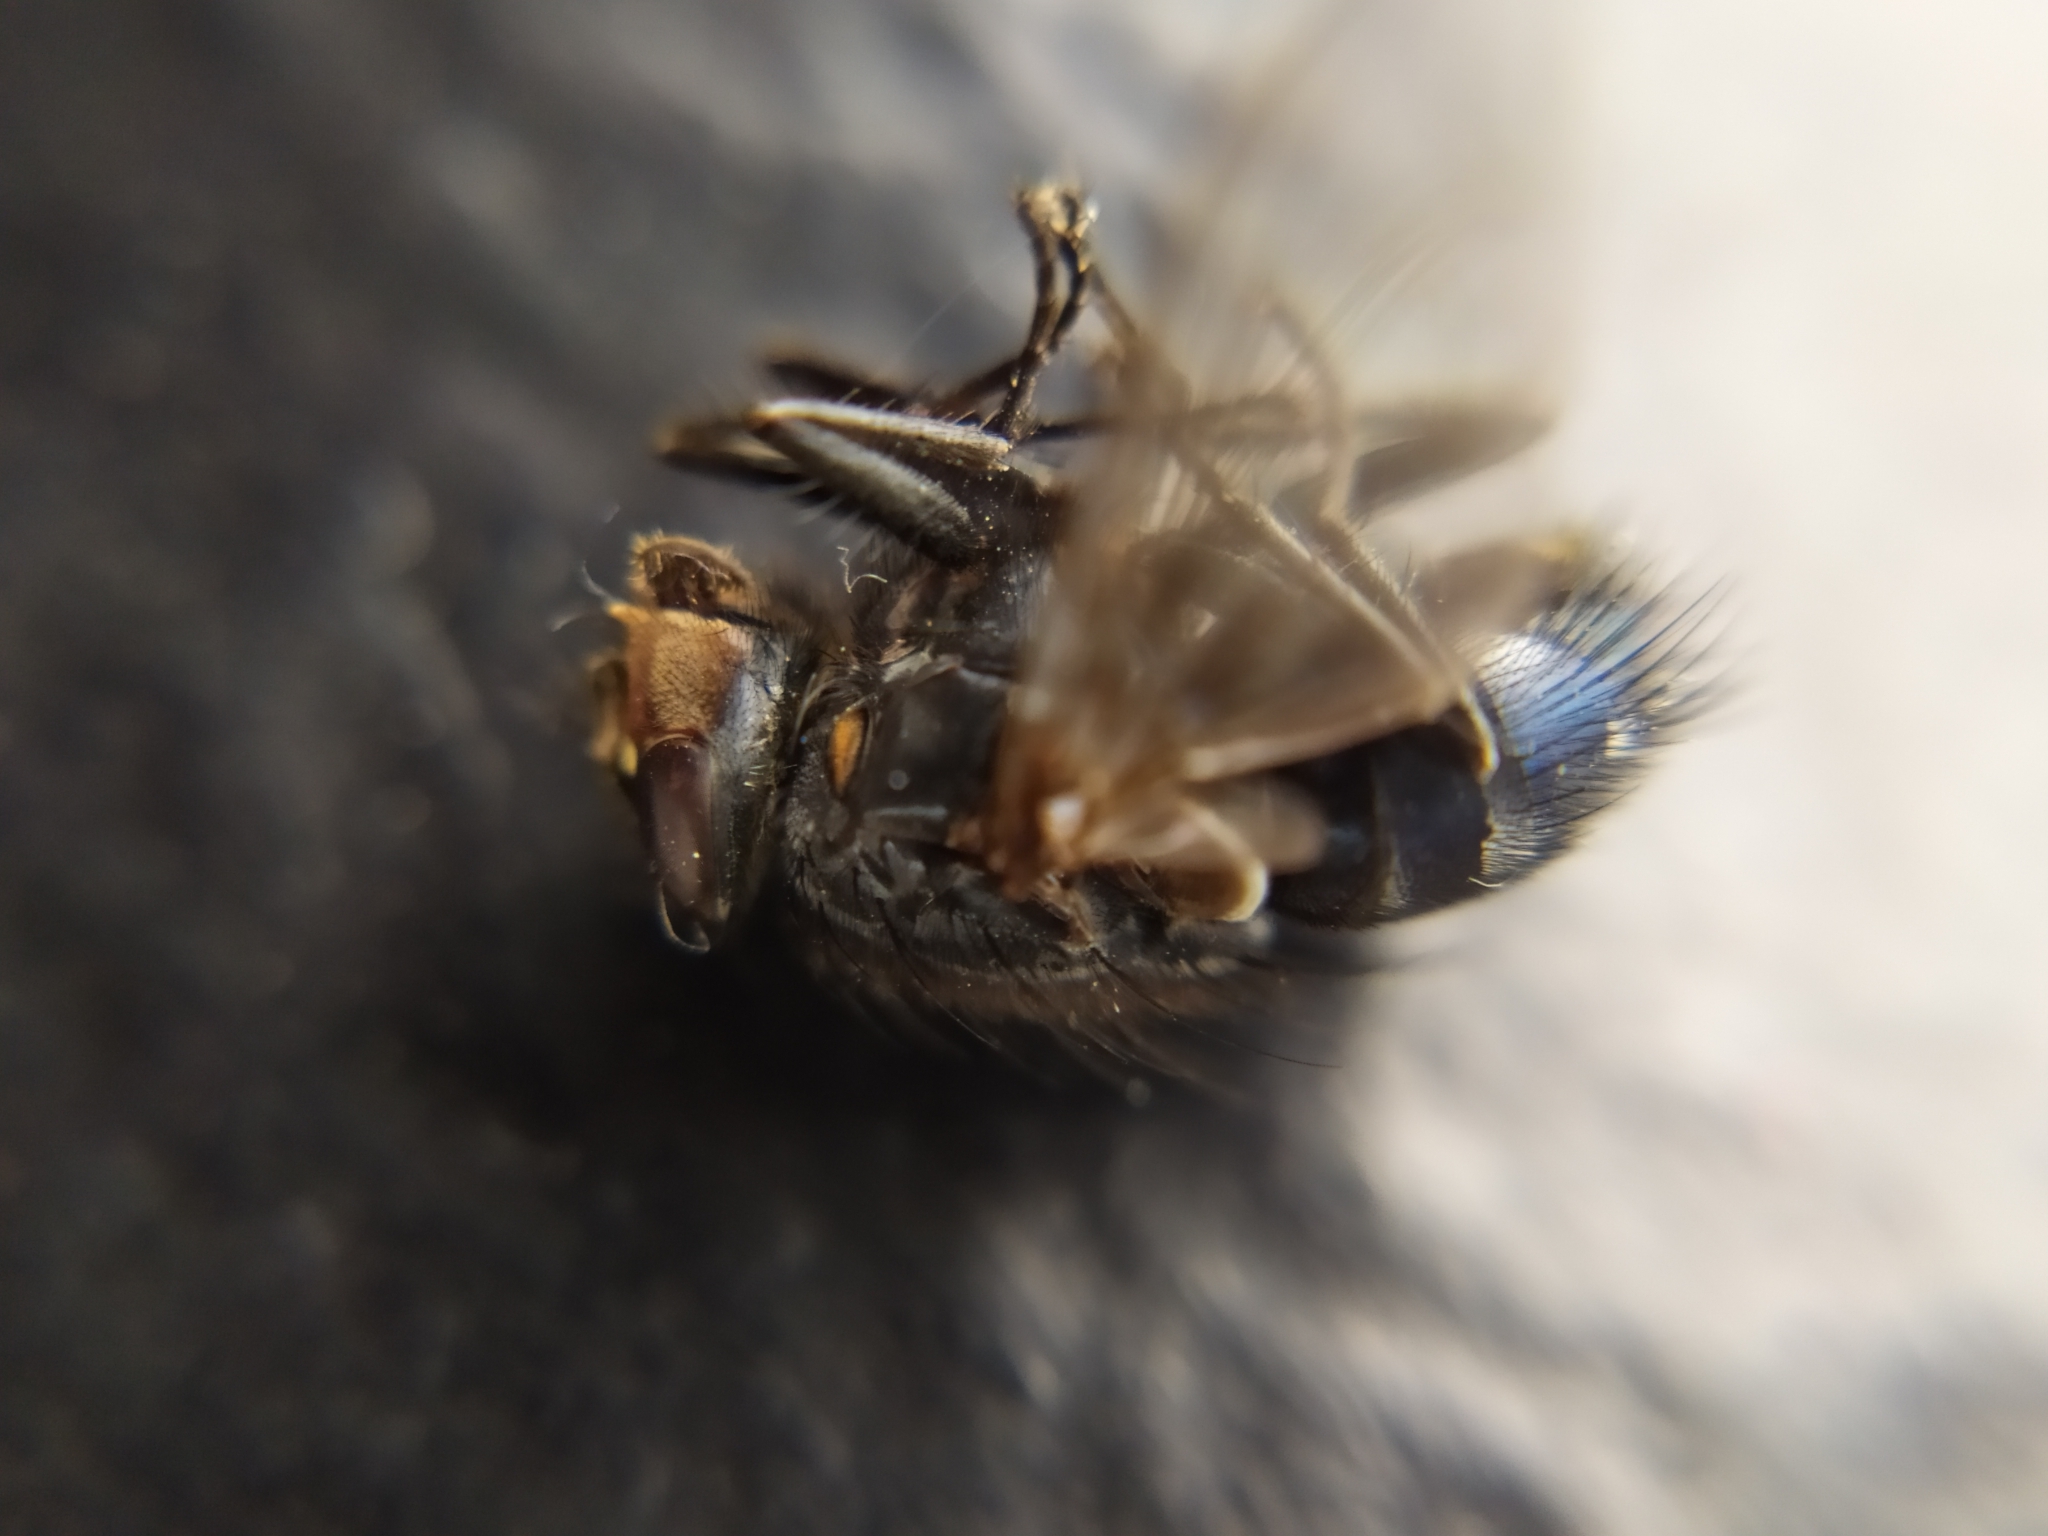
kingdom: Animalia
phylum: Arthropoda
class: Insecta
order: Diptera
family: Calliphoridae
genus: Calliphora
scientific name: Calliphora vicina
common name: Common blow flie
